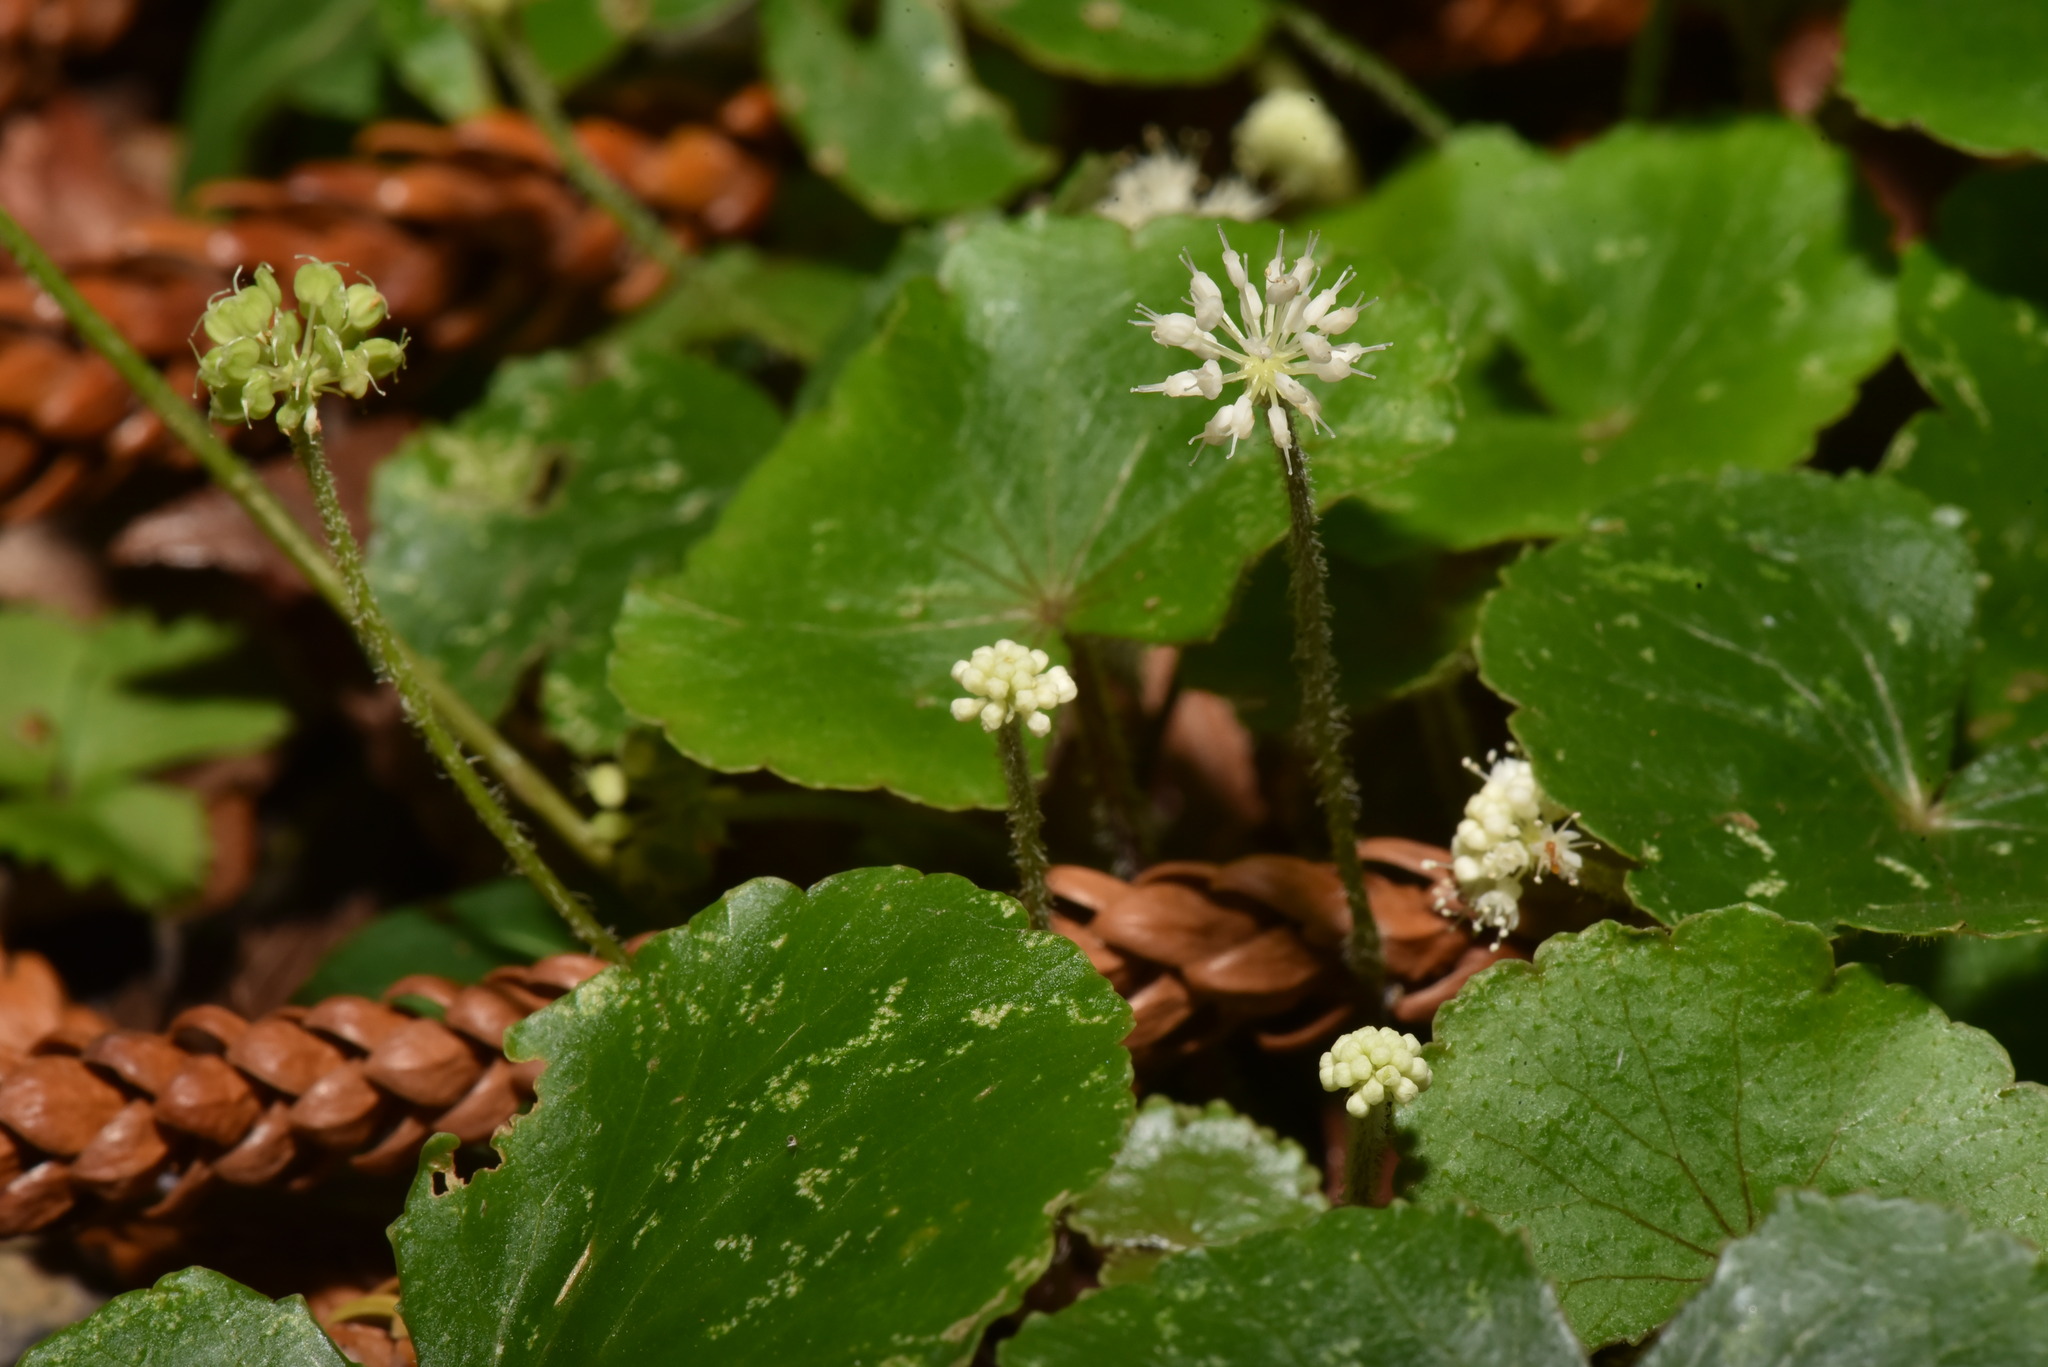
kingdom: Plantae
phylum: Tracheophyta
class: Magnoliopsida
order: Apiales
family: Araliaceae
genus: Hydrocotyle
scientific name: Hydrocotyle leucocephala
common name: Brazilian pennywort
